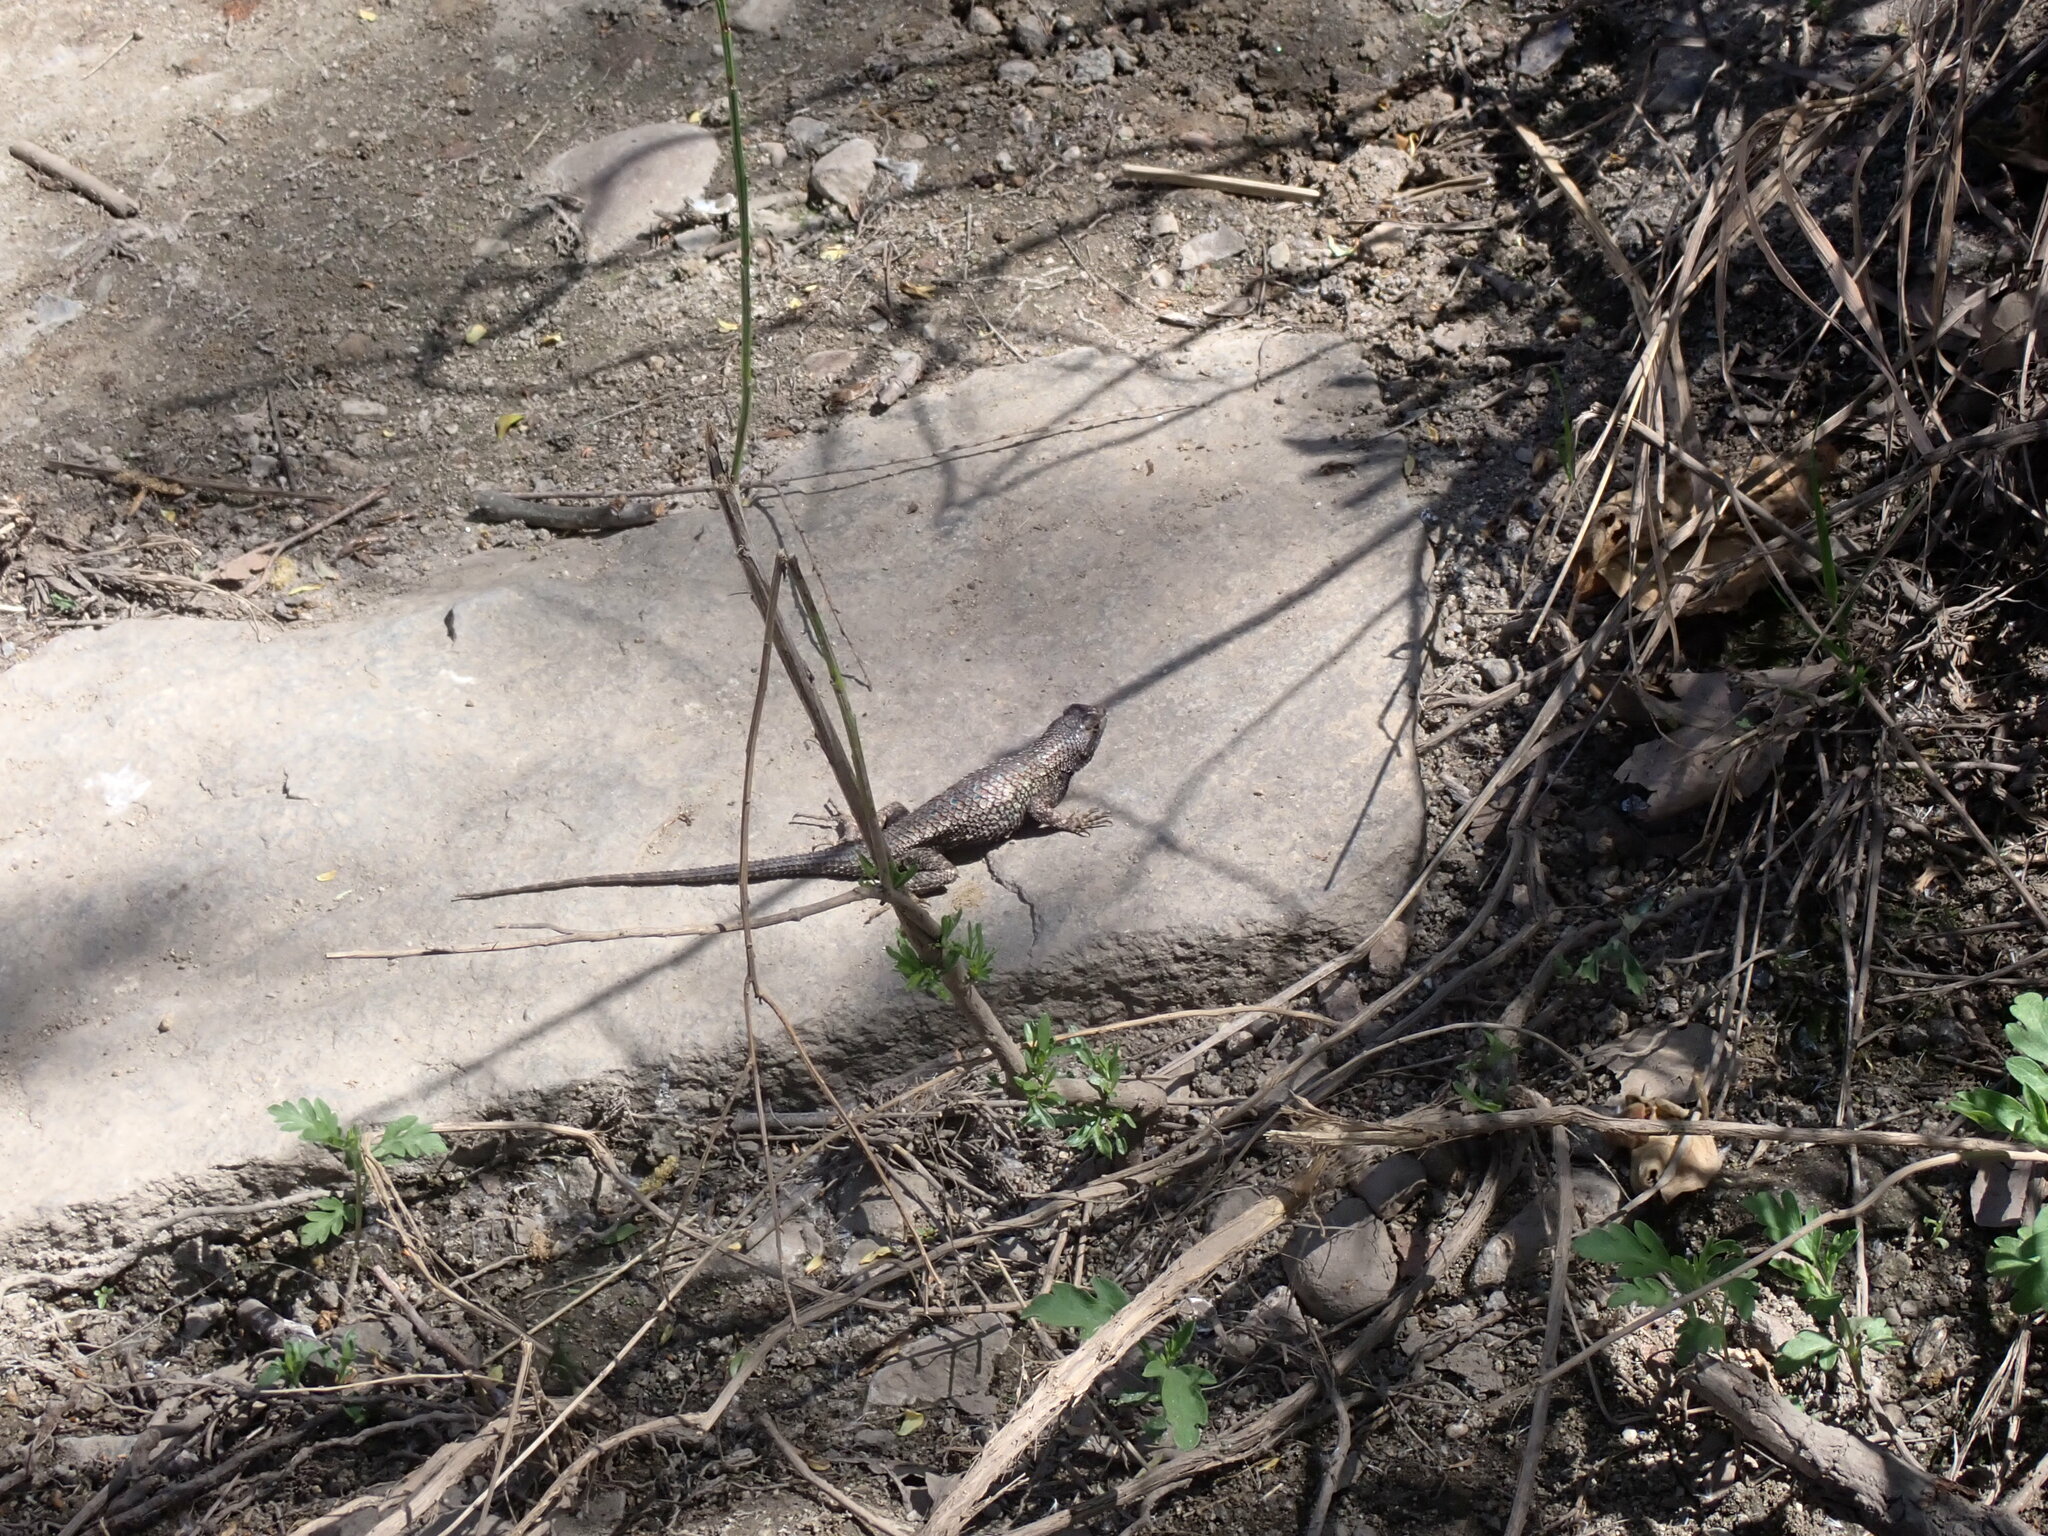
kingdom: Animalia
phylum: Chordata
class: Squamata
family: Phrynosomatidae
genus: Sceloporus
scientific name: Sceloporus occidentalis
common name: Western fence lizard
